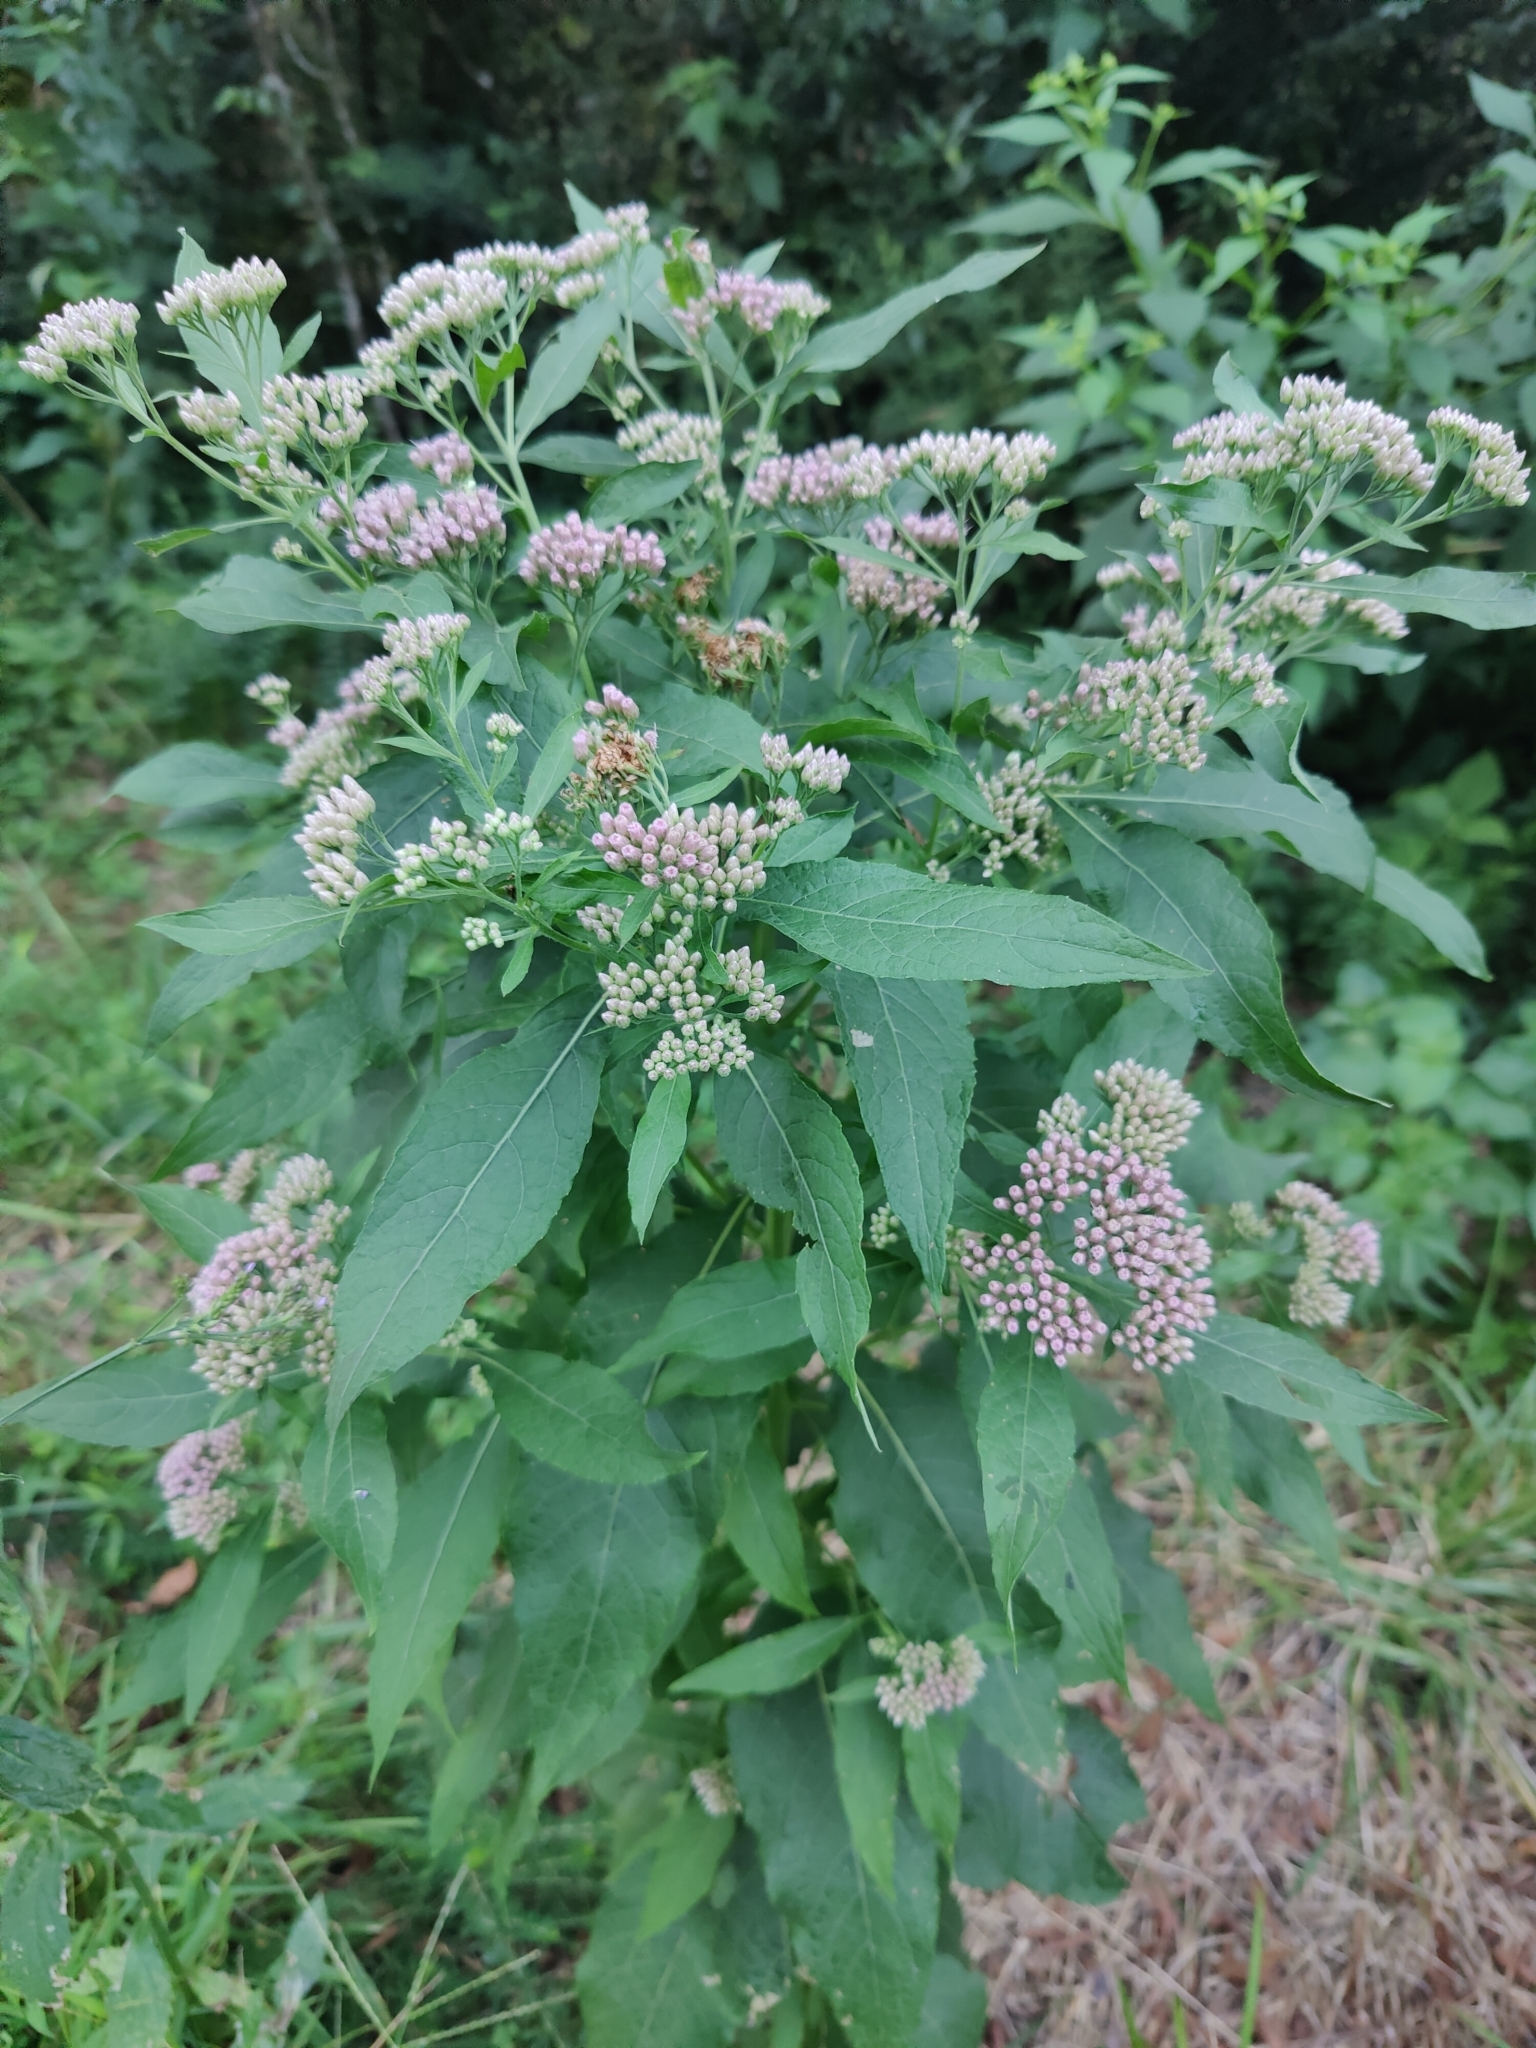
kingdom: Plantae
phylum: Tracheophyta
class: Magnoliopsida
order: Asterales
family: Asteraceae
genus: Pluchea
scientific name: Pluchea camphorata
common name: Camphor pluchea
